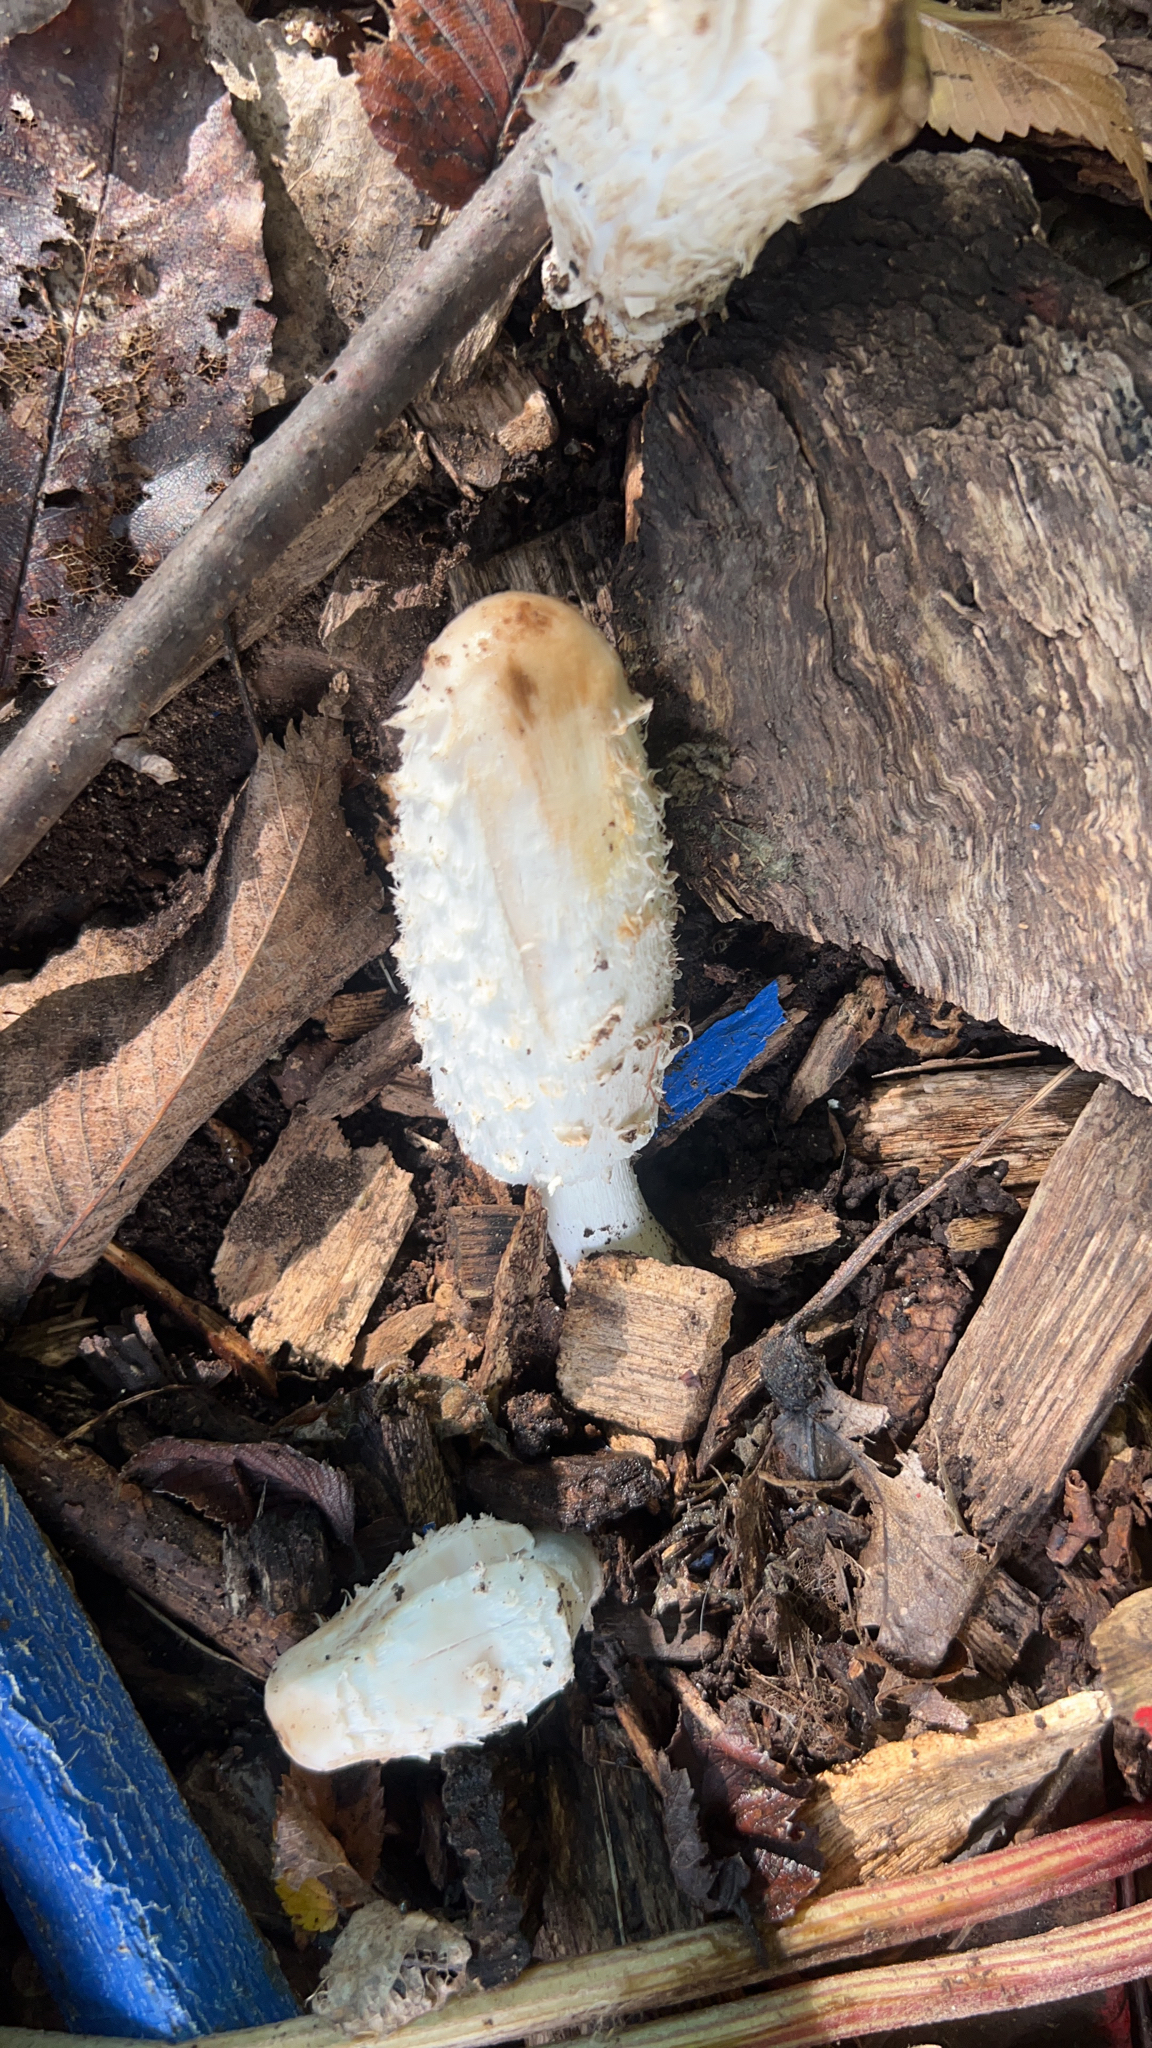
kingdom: Fungi
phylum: Basidiomycota
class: Agaricomycetes
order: Agaricales
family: Agaricaceae
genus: Coprinus
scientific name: Coprinus comatus
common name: Lawyer's wig
